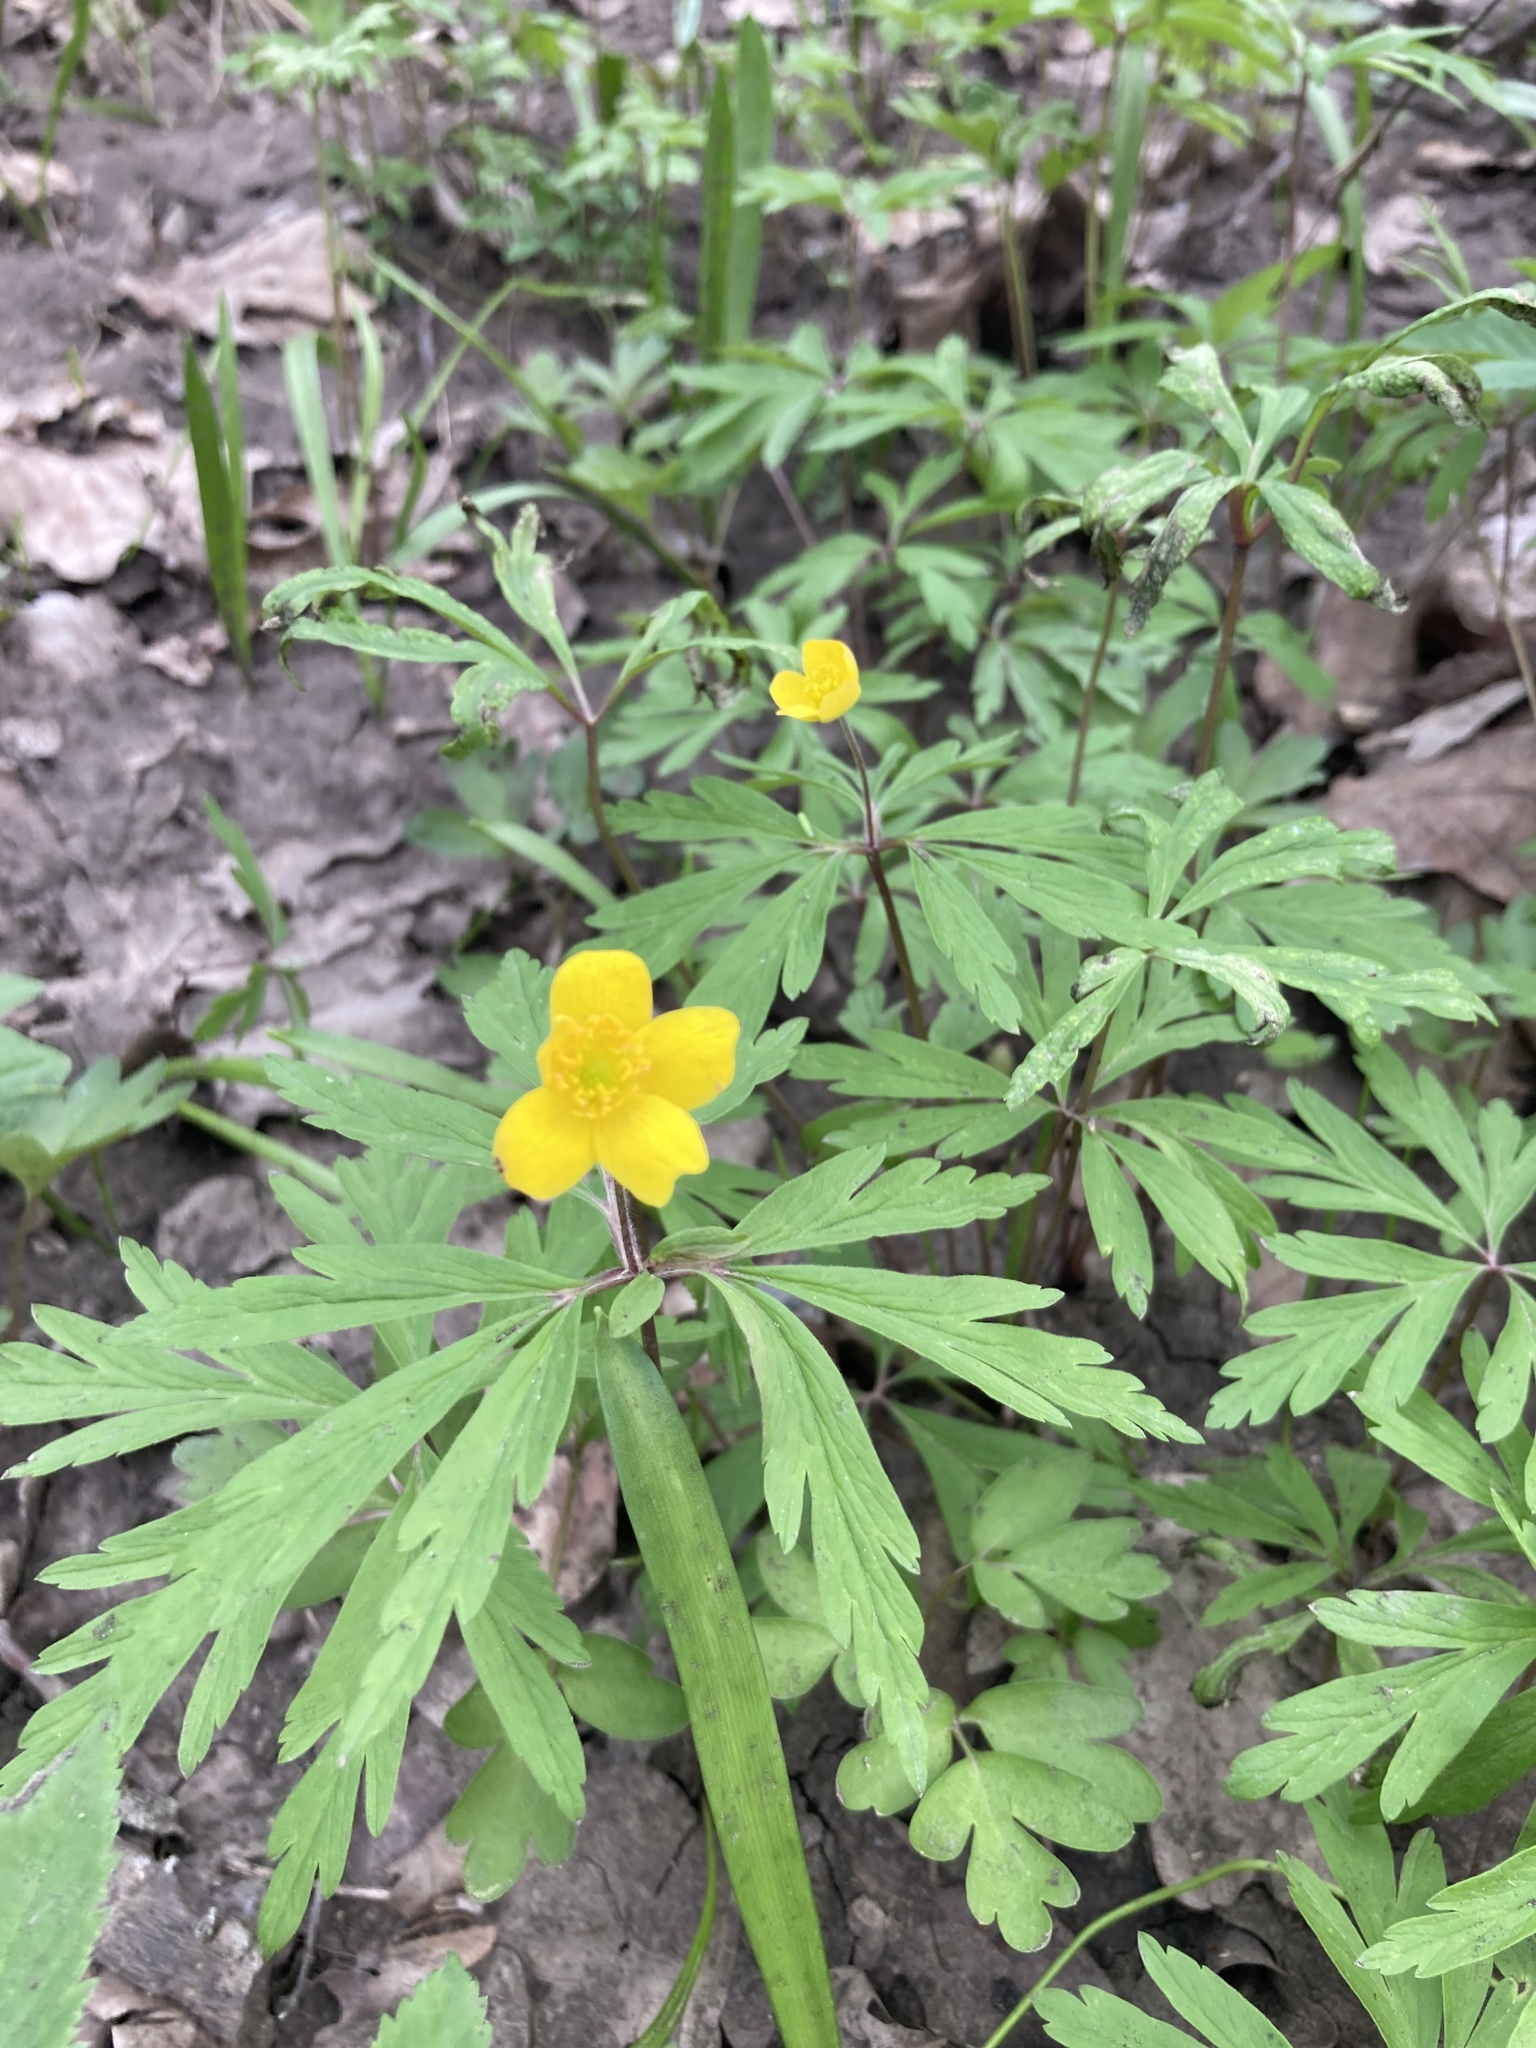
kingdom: Plantae
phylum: Tracheophyta
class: Magnoliopsida
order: Ranunculales
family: Ranunculaceae
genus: Anemone
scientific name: Anemone ranunculoides
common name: Yellow anemone
